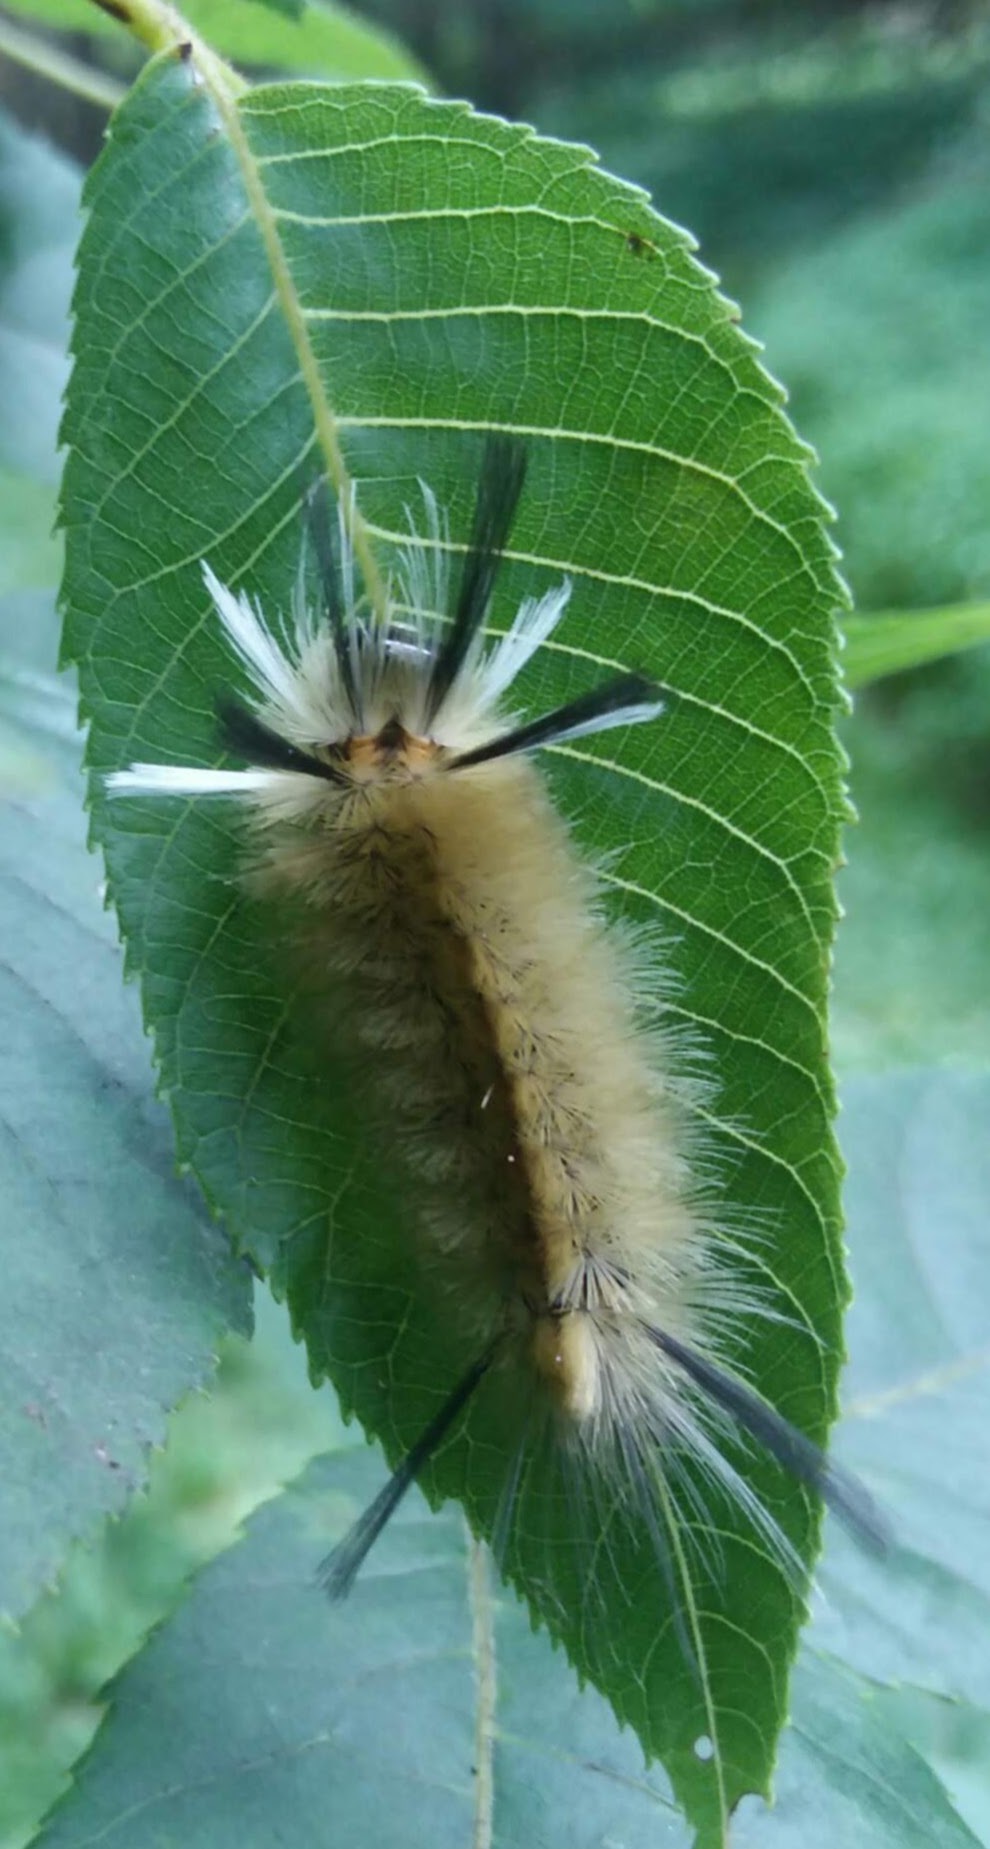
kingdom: Animalia
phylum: Arthropoda
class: Insecta
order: Lepidoptera
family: Erebidae
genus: Halysidota
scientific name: Halysidota tessellaris
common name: Banded tussock moth
